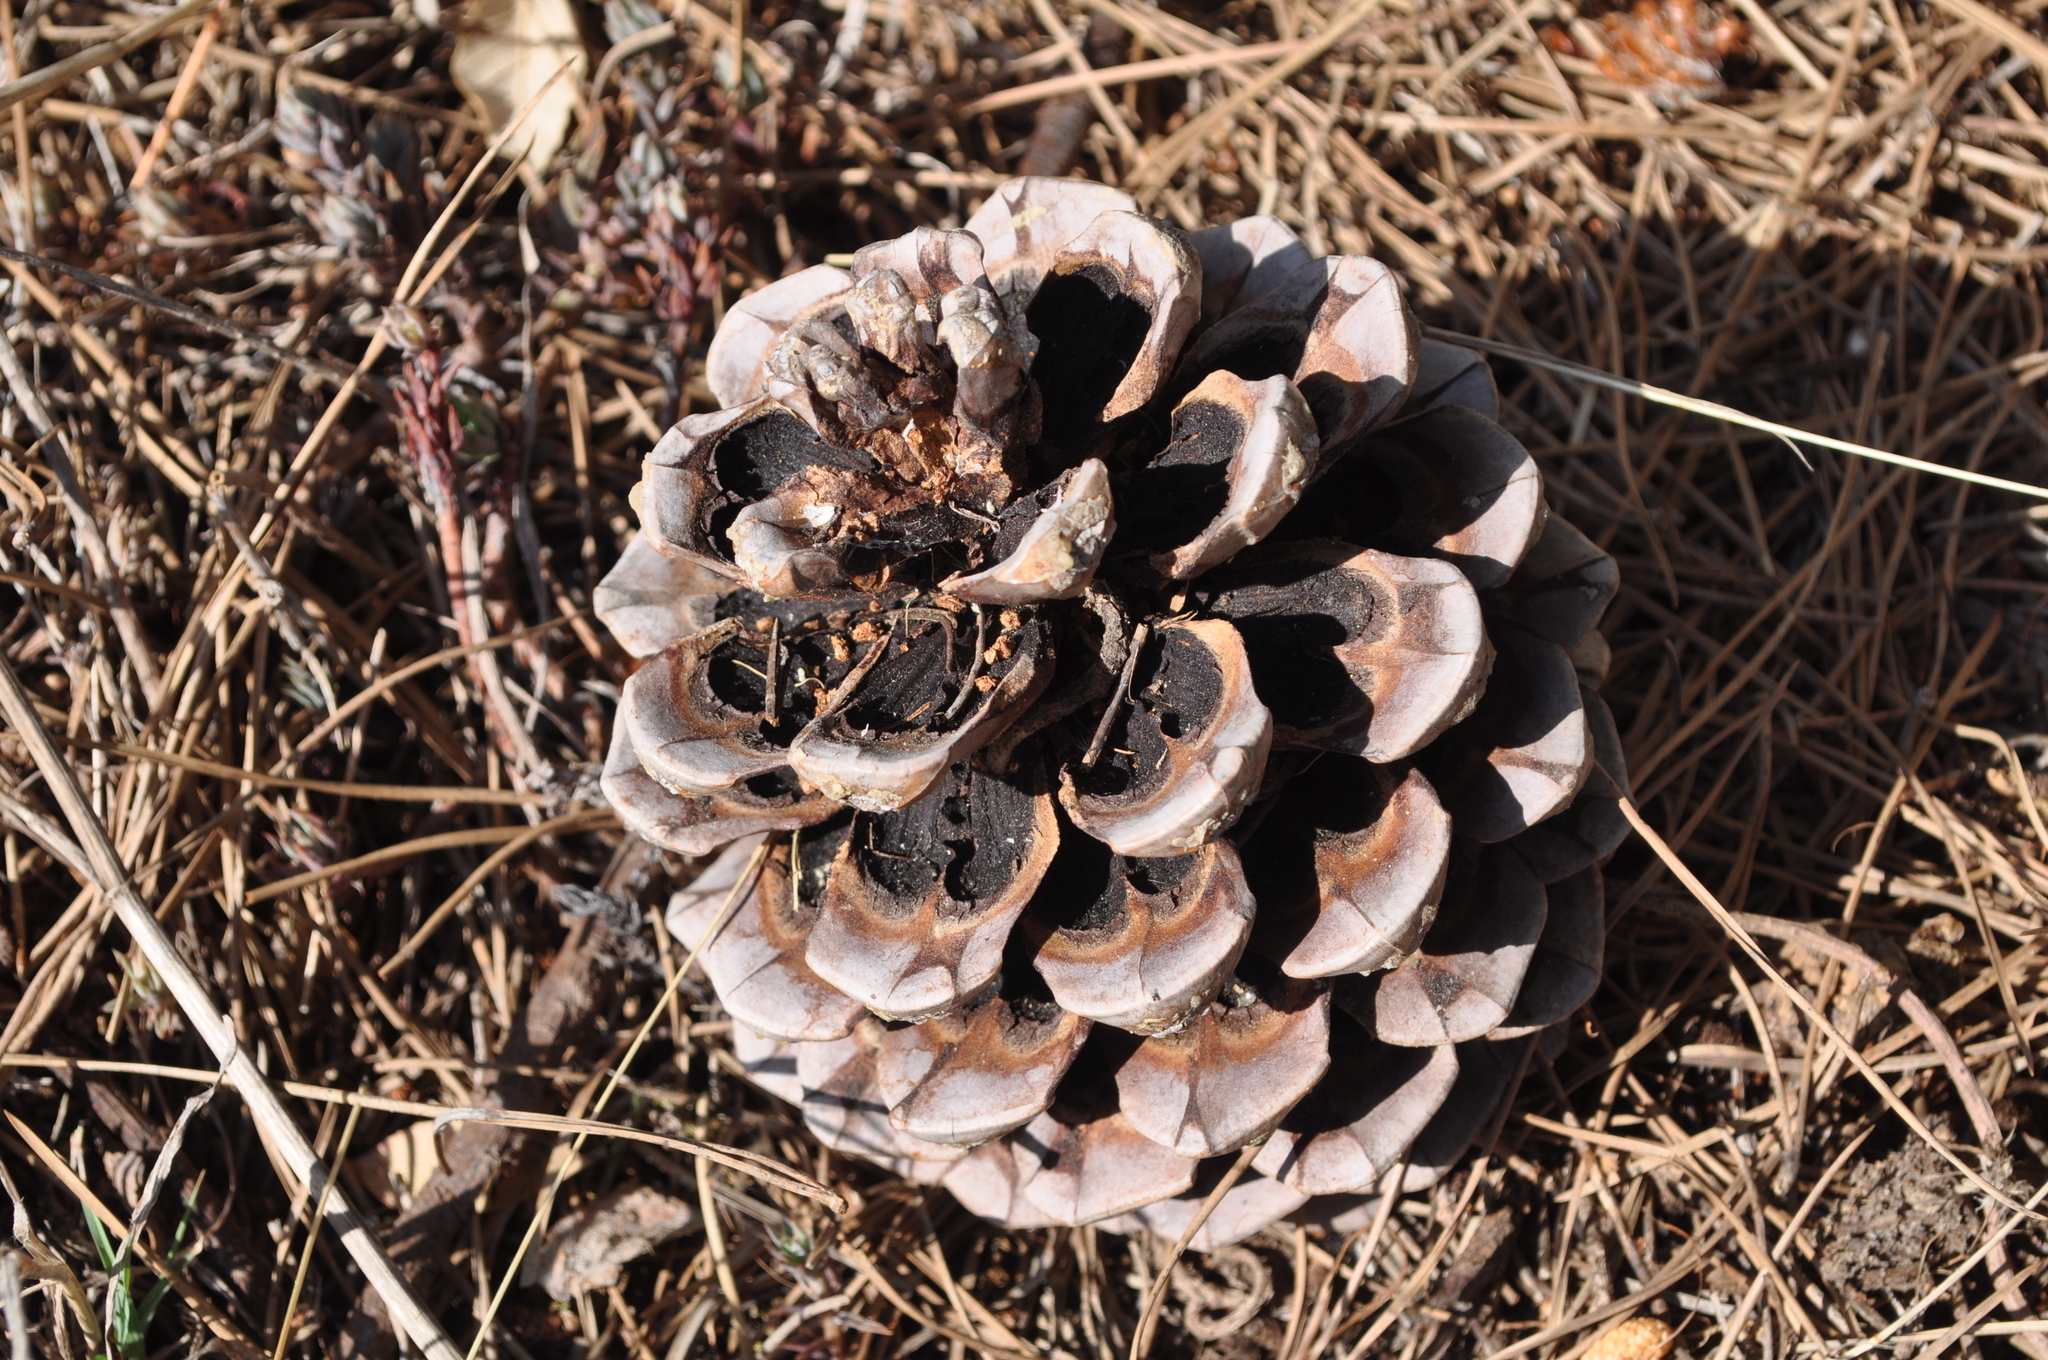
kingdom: Plantae
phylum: Tracheophyta
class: Pinopsida
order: Pinales
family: Pinaceae
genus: Pinus
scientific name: Pinus pinea
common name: Italian stone pine
